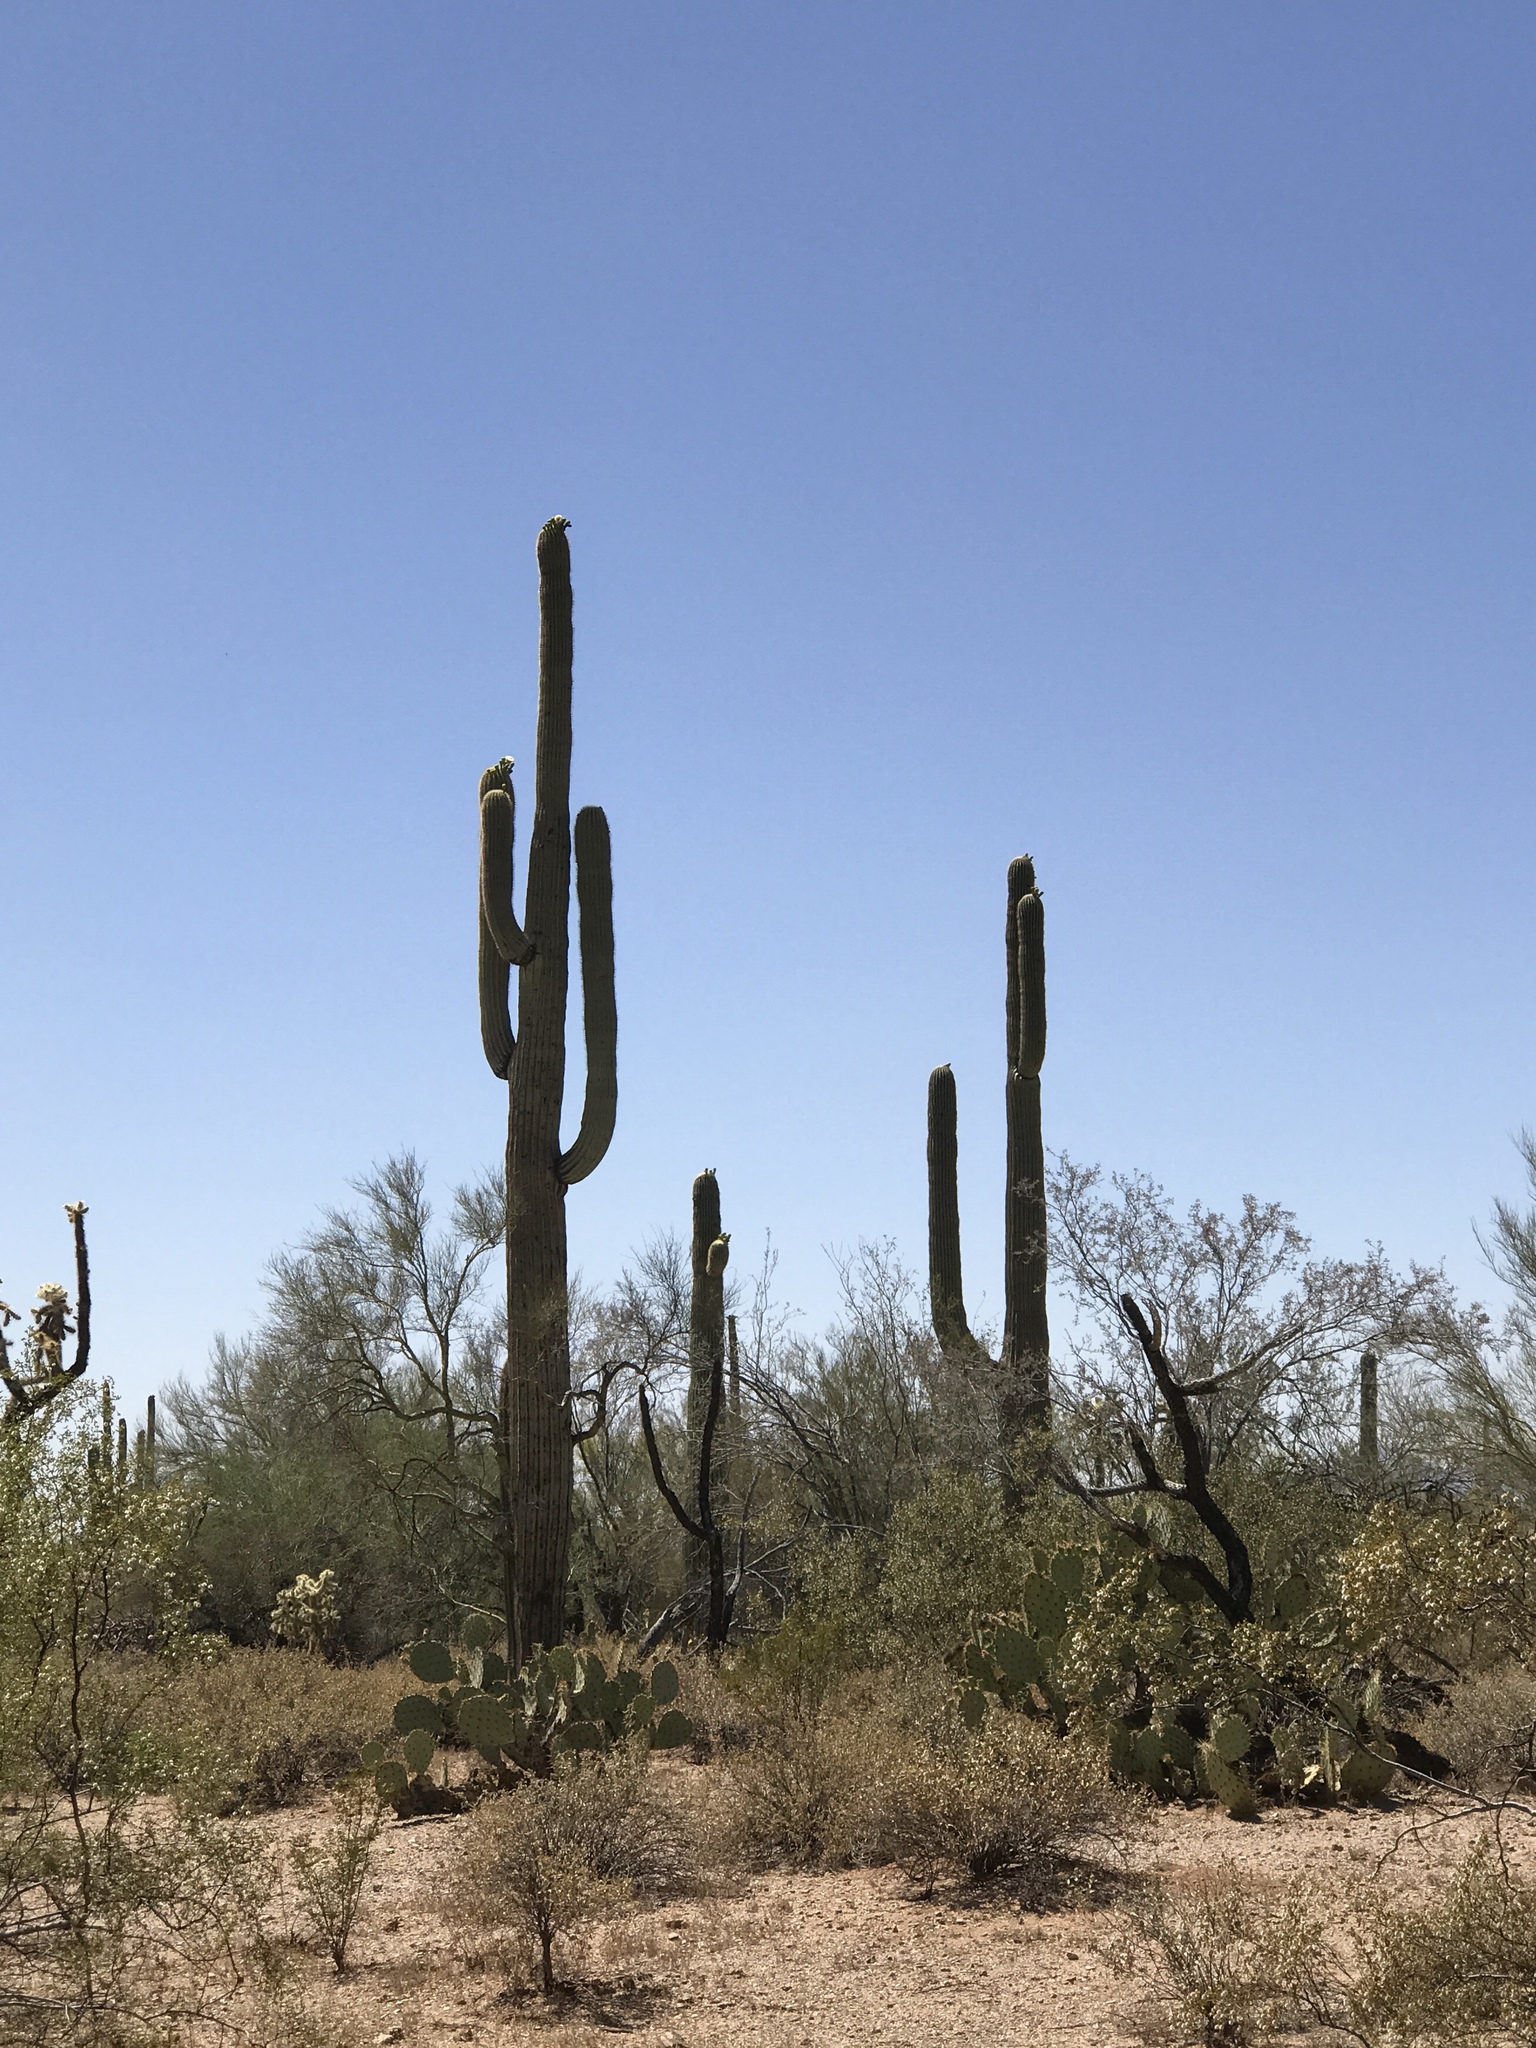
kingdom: Plantae
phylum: Tracheophyta
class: Magnoliopsida
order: Caryophyllales
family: Cactaceae
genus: Carnegiea
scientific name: Carnegiea gigantea
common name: Saguaro
